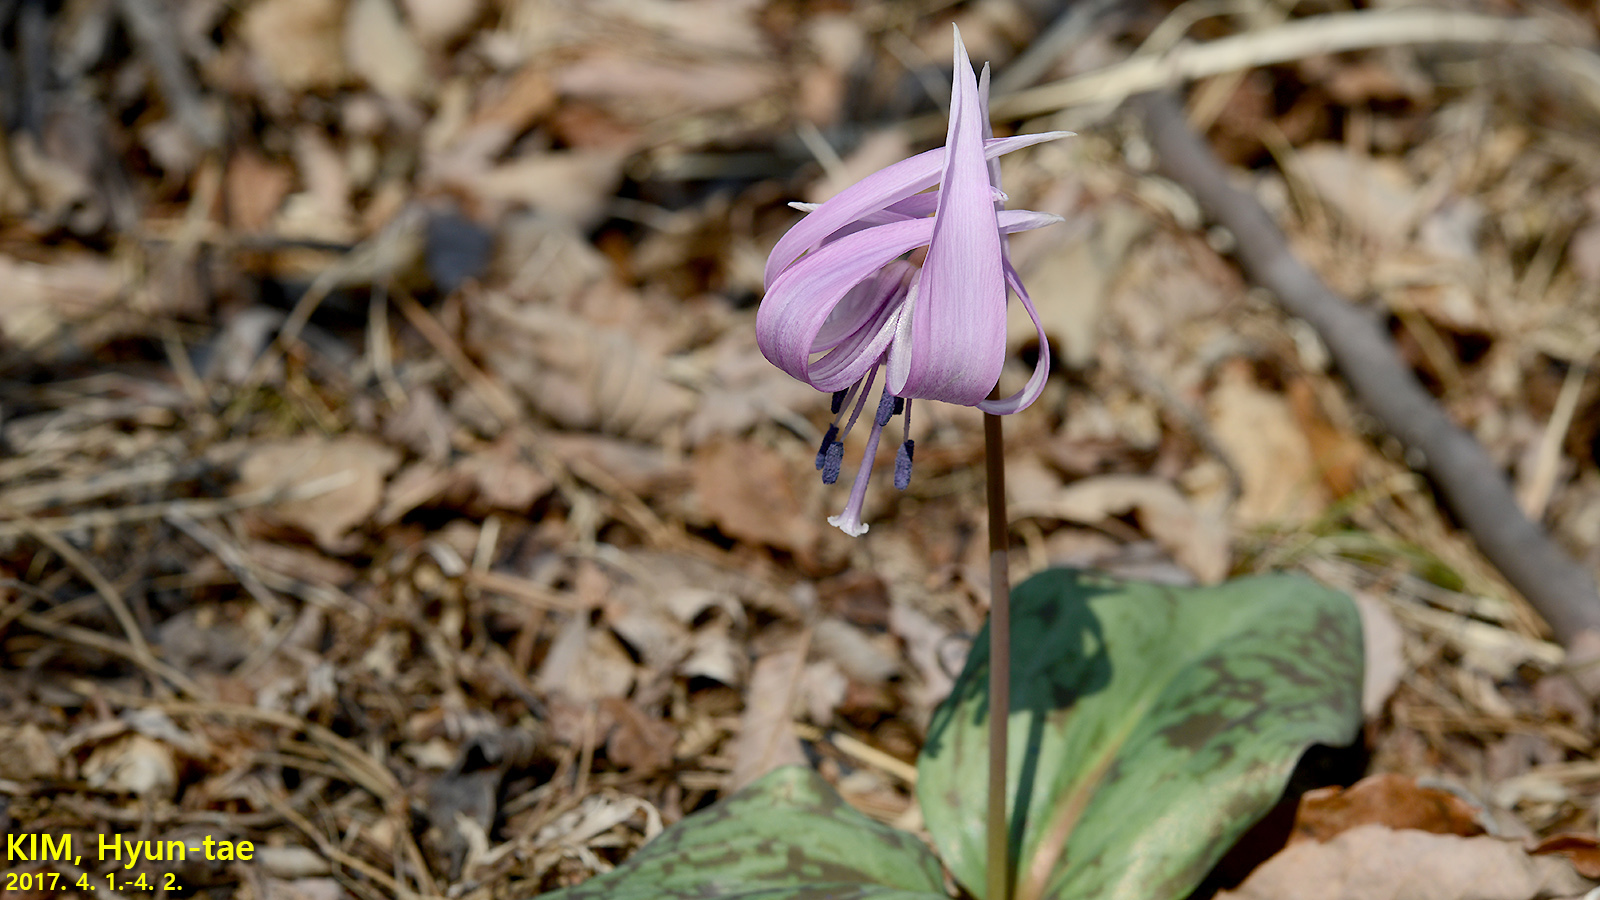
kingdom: Plantae
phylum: Tracheophyta
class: Liliopsida
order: Liliales
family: Liliaceae
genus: Erythronium
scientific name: Erythronium japonicum
